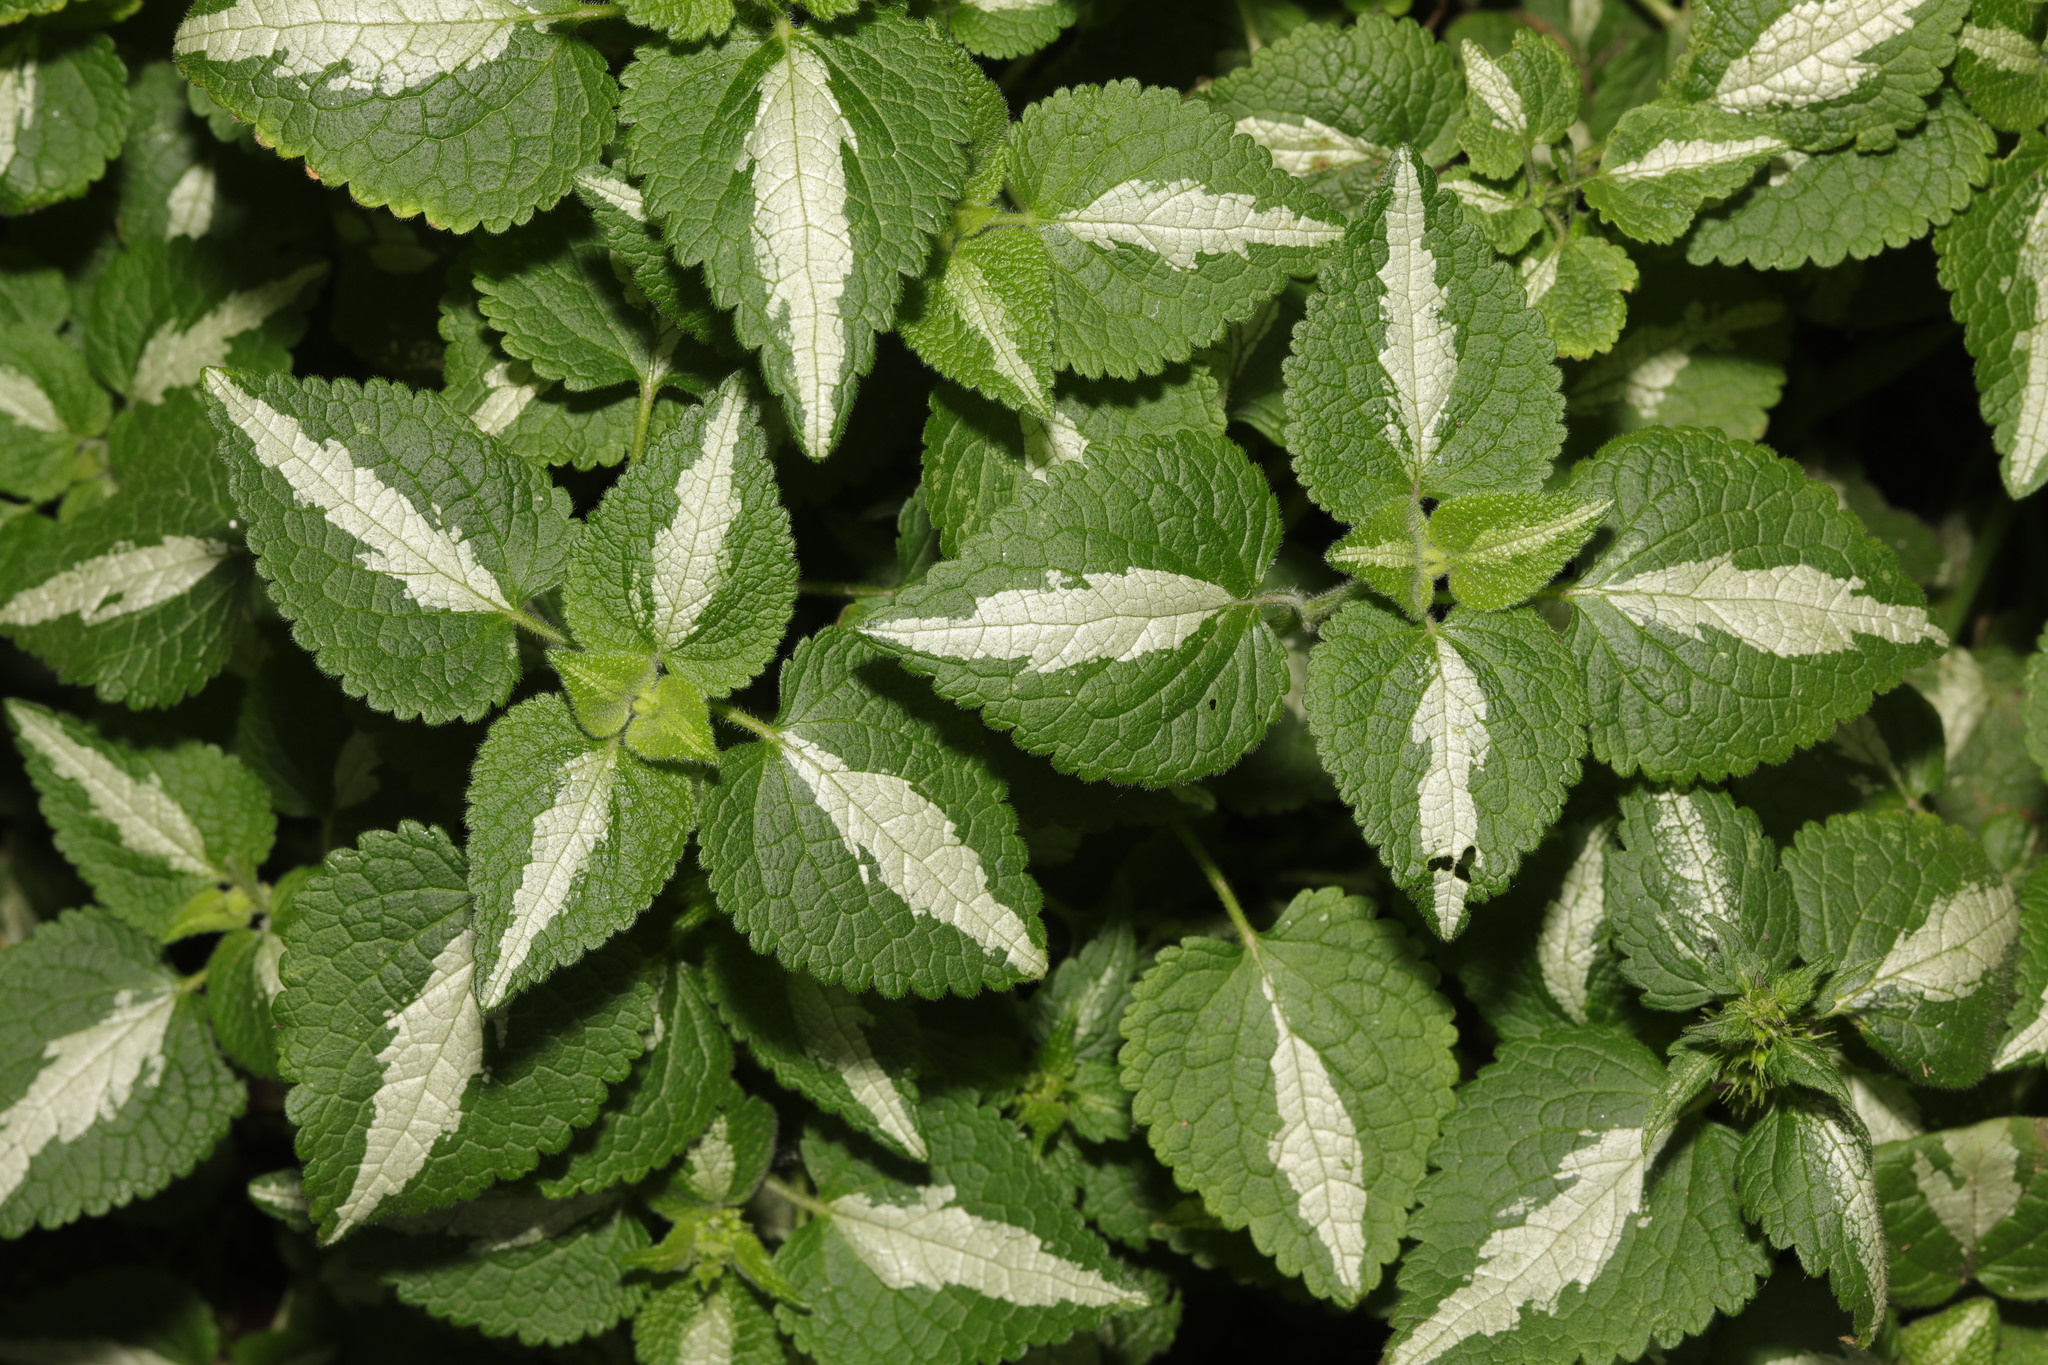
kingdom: Plantae
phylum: Tracheophyta
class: Magnoliopsida
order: Lamiales
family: Lamiaceae
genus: Lamium
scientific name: Lamium maculatum
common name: Spotted dead-nettle
